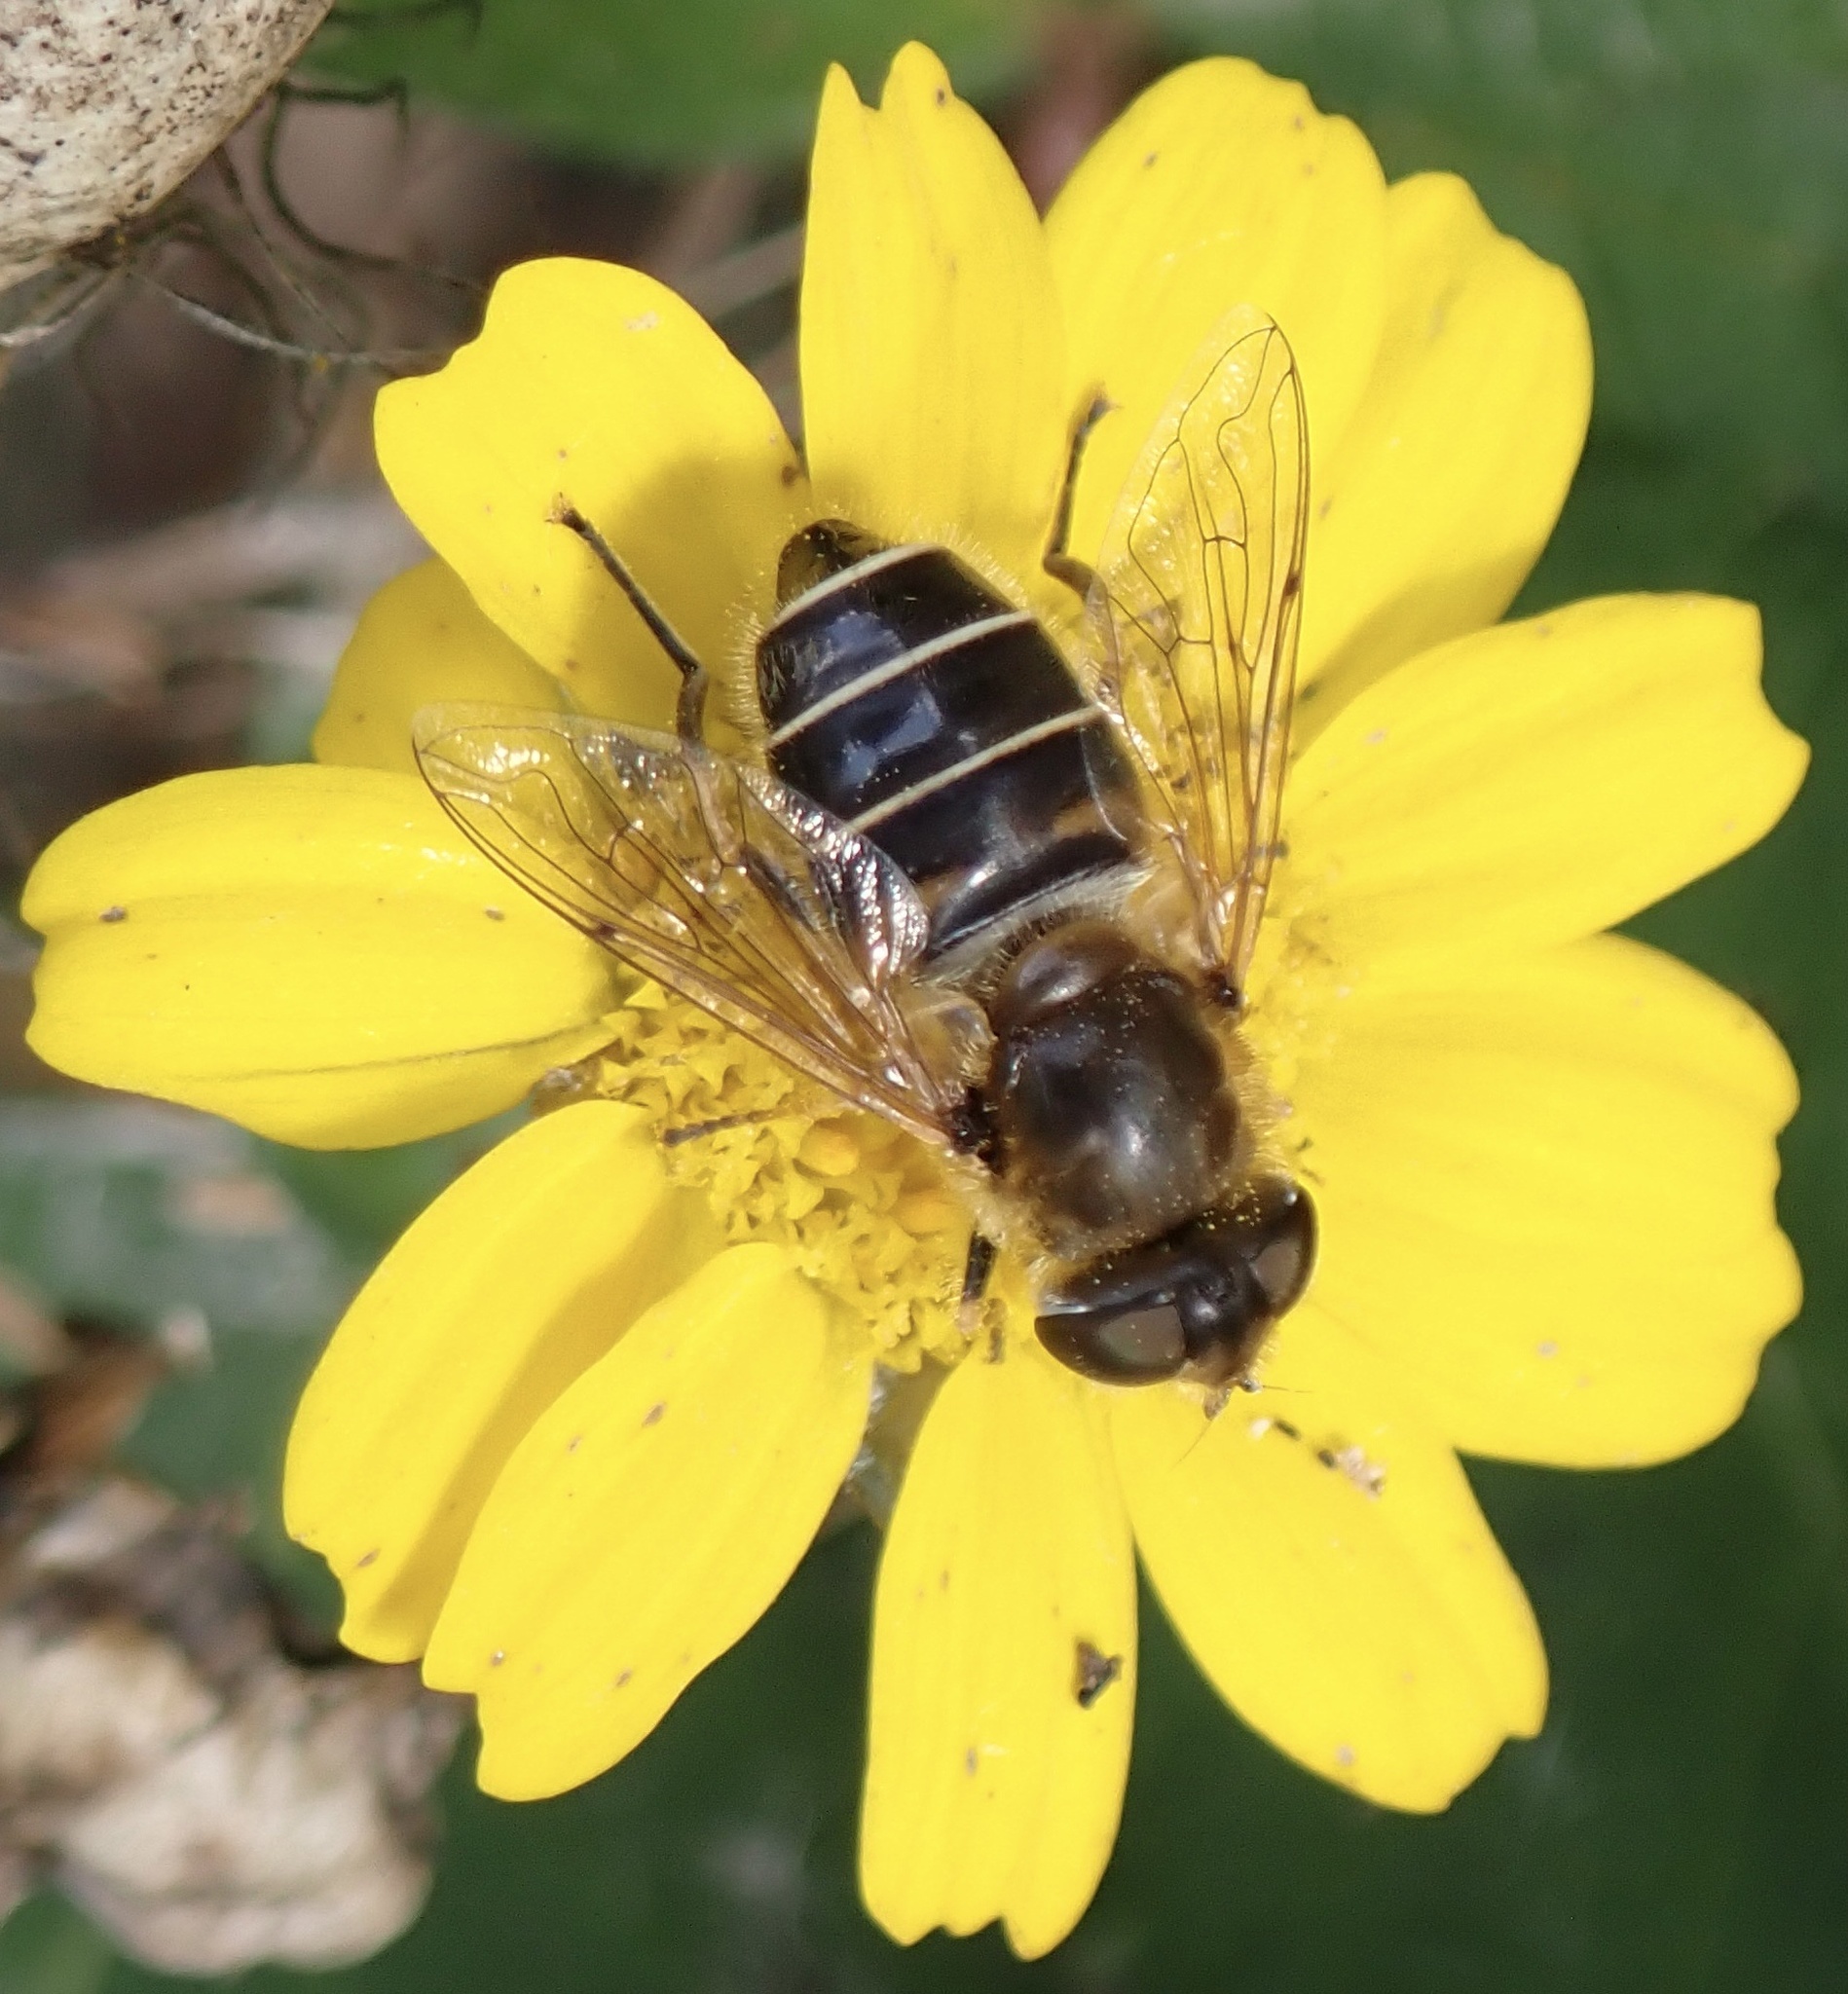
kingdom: Animalia
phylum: Arthropoda
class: Insecta
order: Diptera
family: Syrphidae
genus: Eristalis
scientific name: Eristalis nemorum
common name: Orange-spined drone fly
